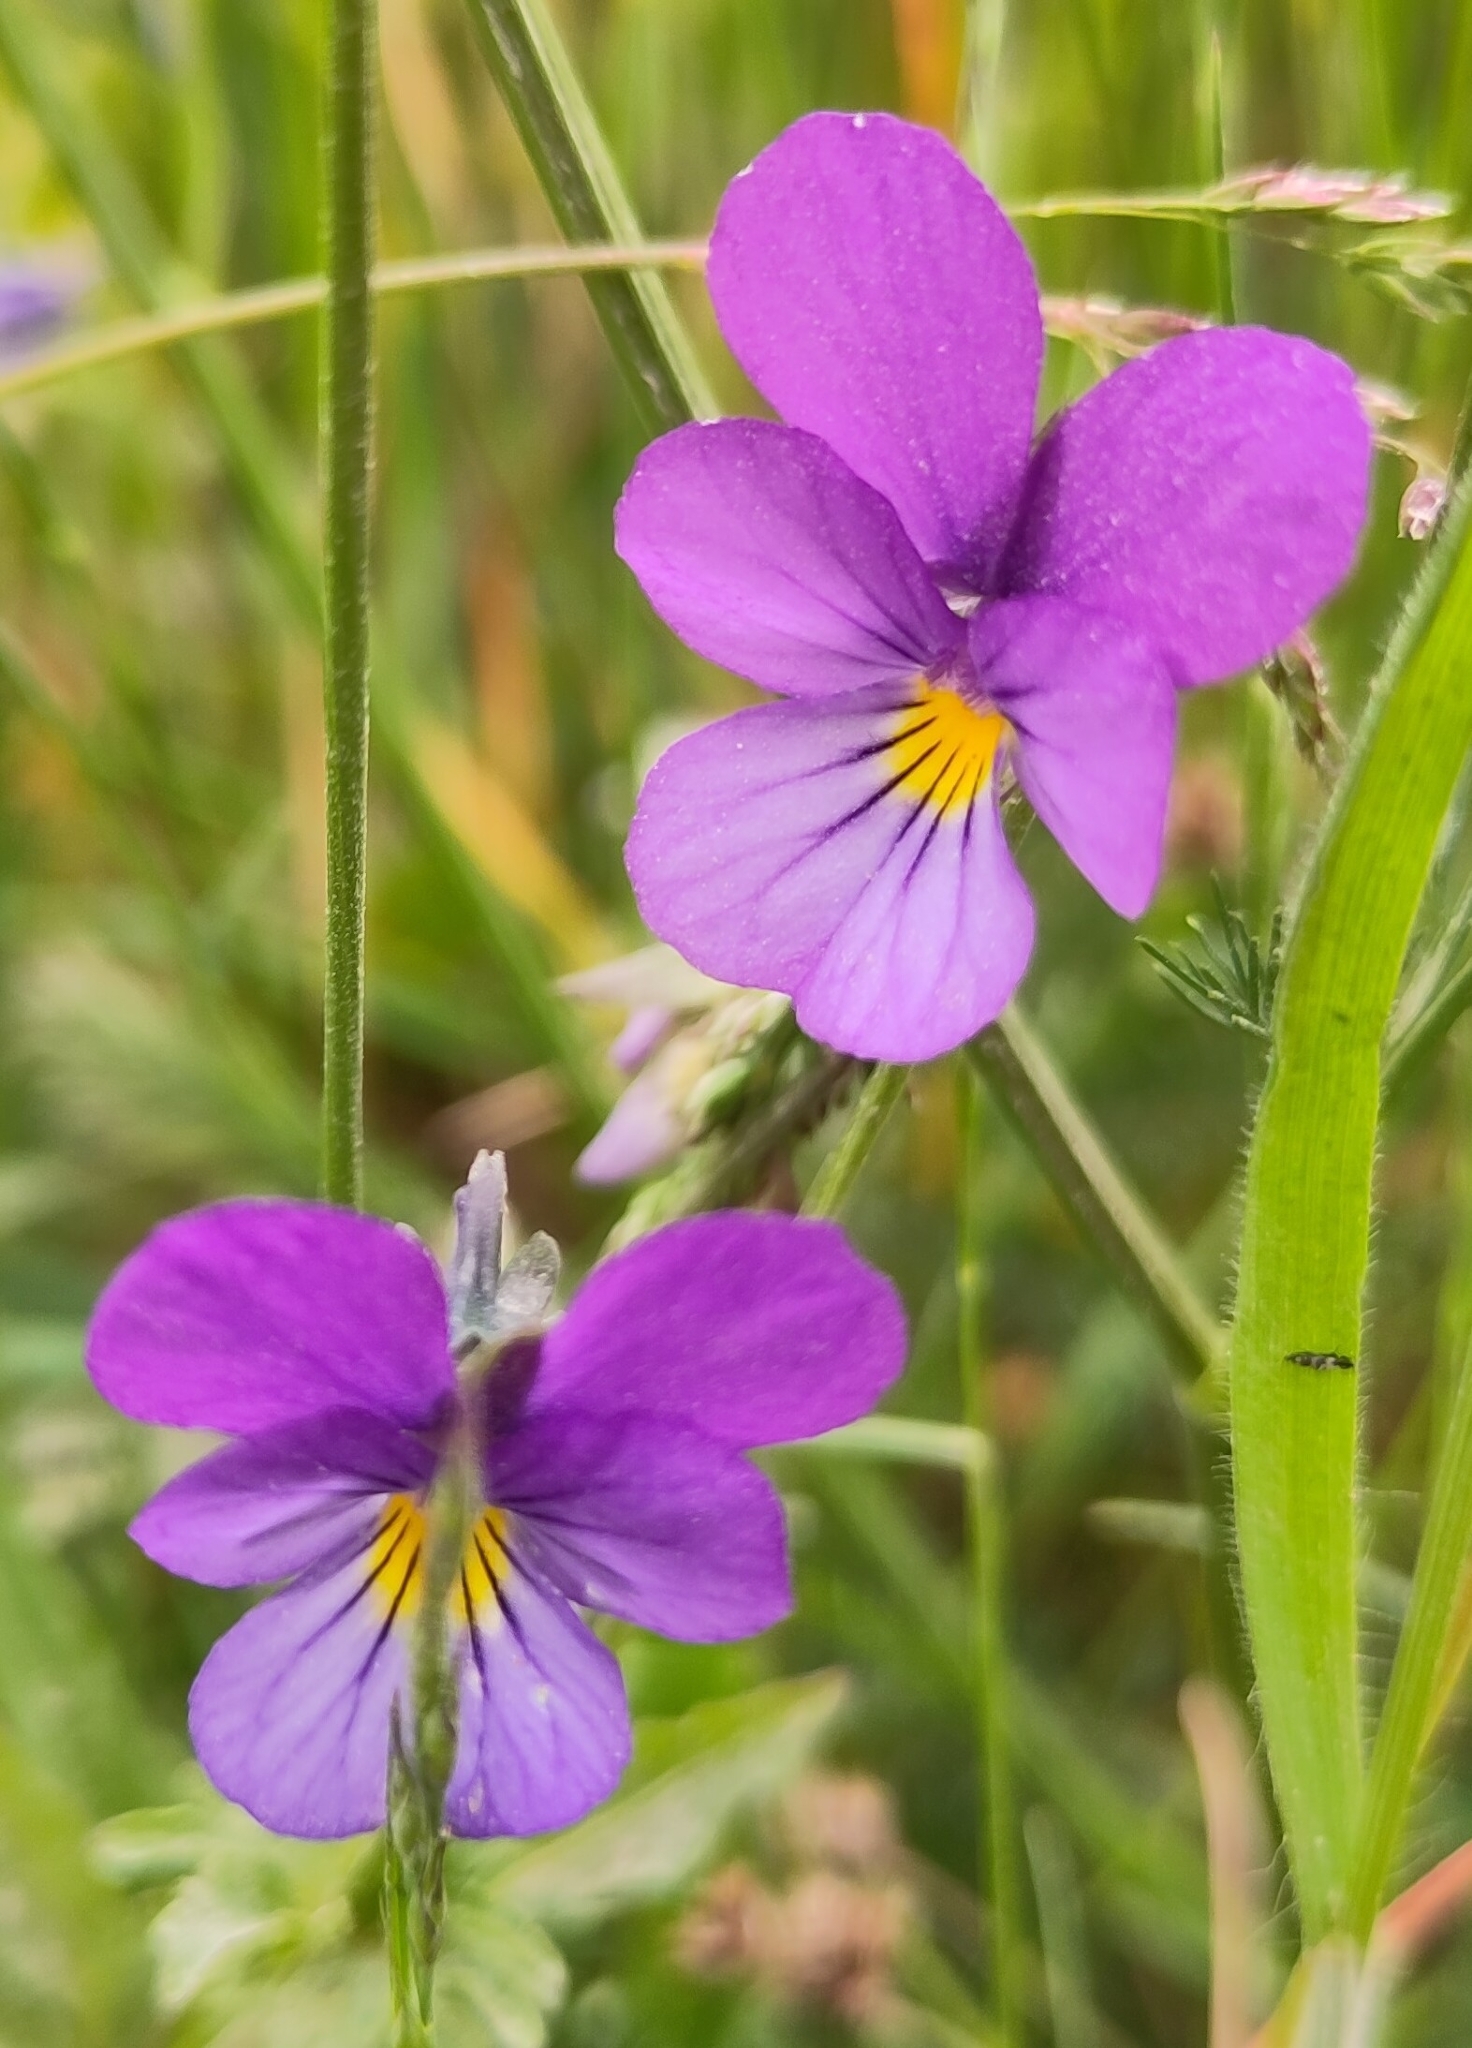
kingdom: Plantae
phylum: Tracheophyta
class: Magnoliopsida
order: Malpighiales
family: Violaceae
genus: Viola
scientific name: Viola tricolor
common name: Pansy
